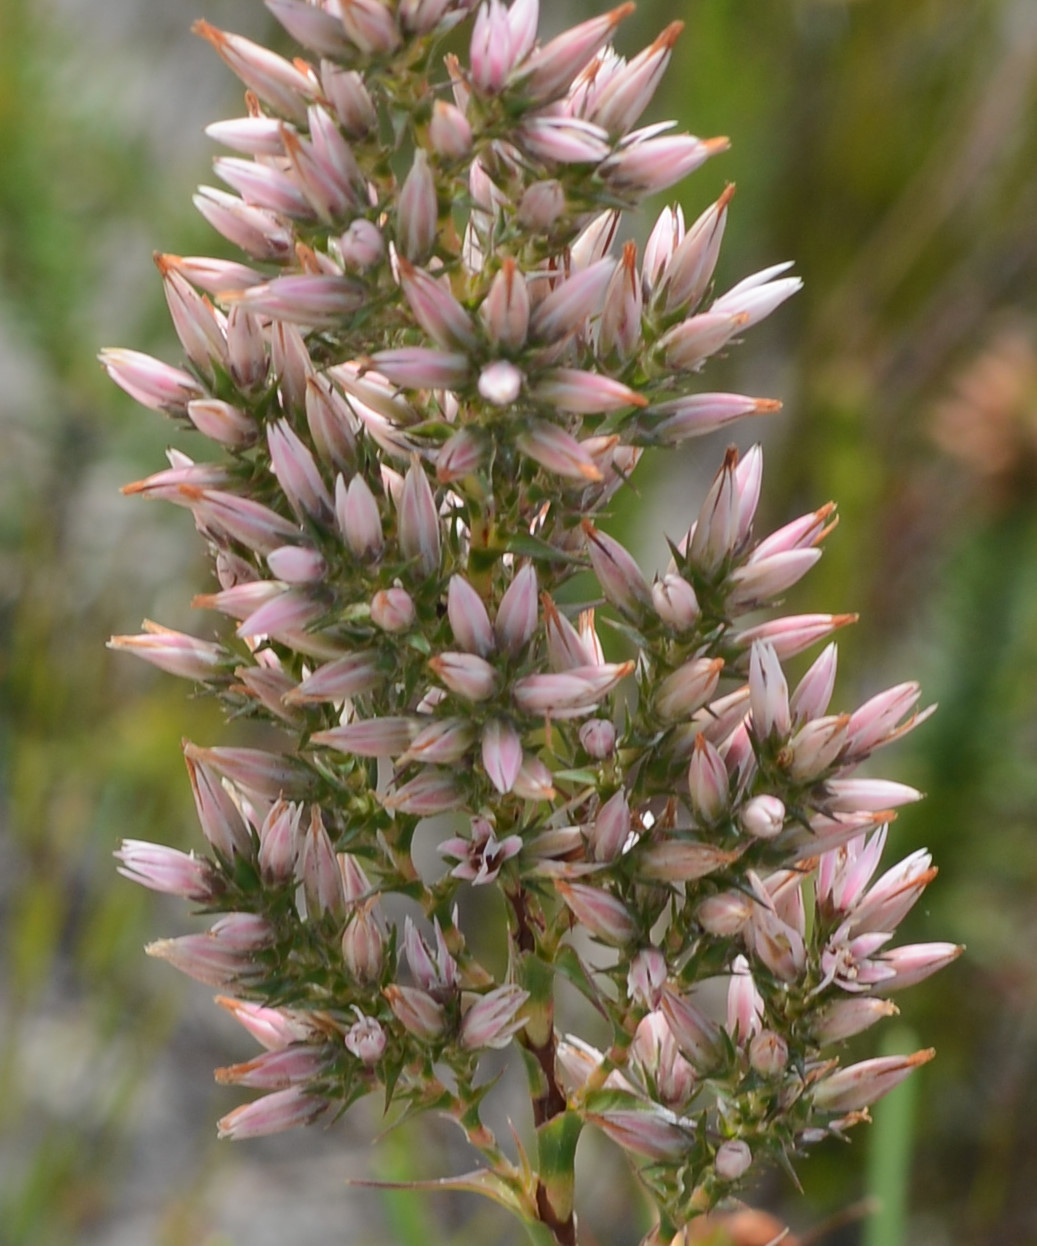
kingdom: Plantae
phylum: Tracheophyta
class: Magnoliopsida
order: Ericales
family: Ericaceae
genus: Sprengelia
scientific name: Sprengelia incarnata
